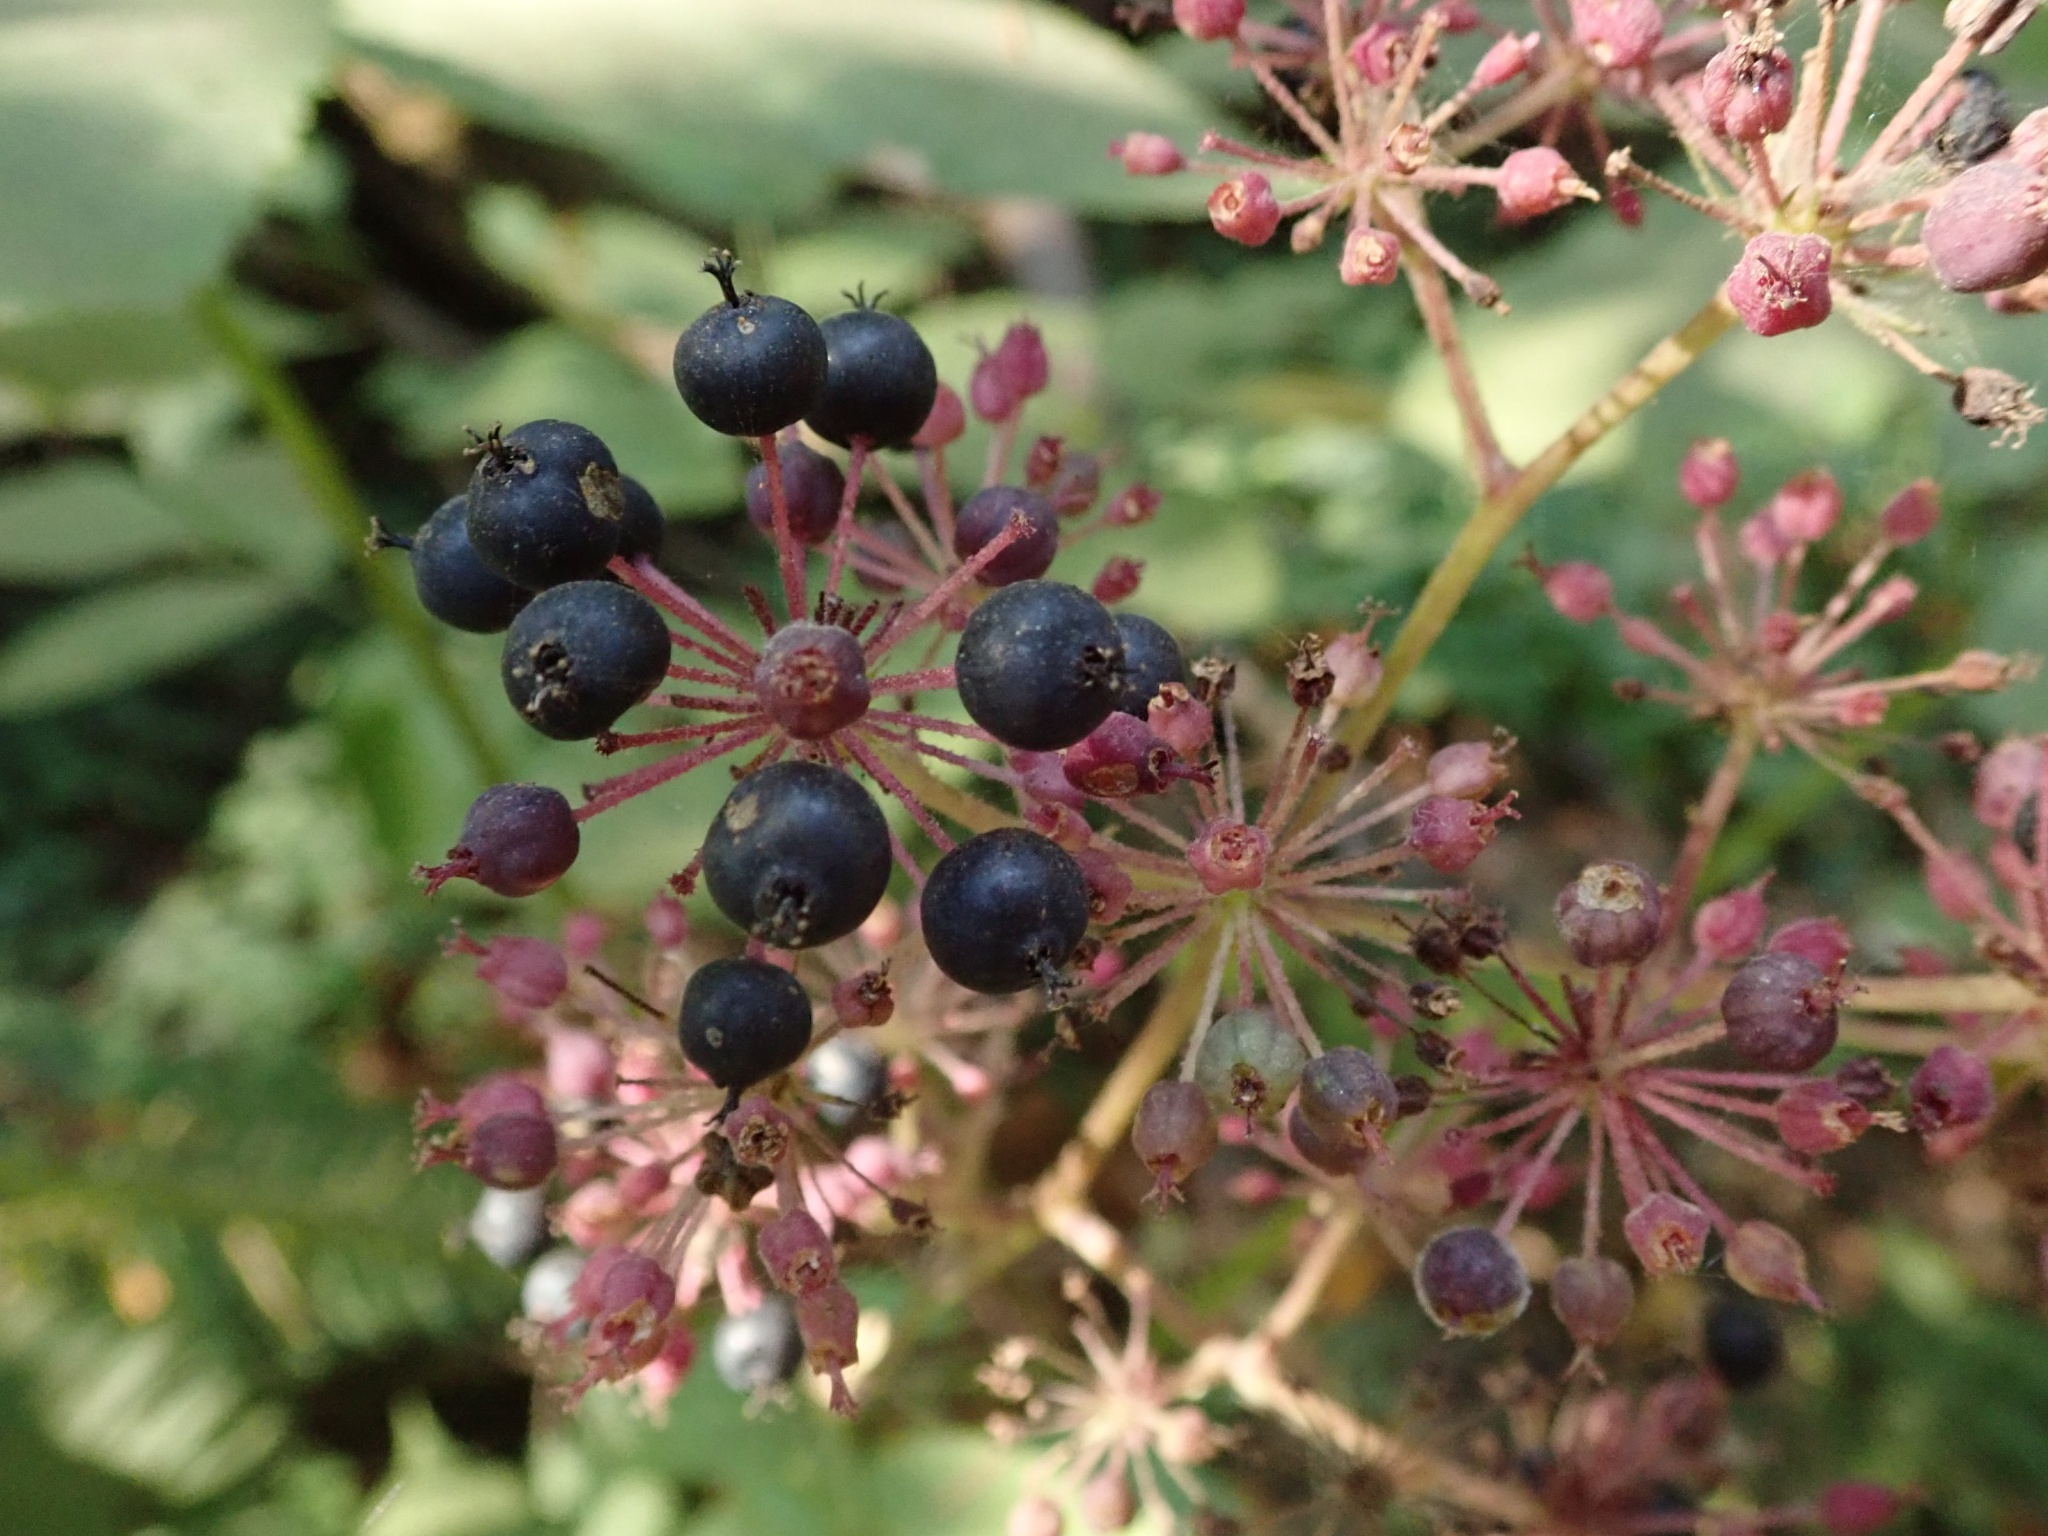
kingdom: Plantae
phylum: Tracheophyta
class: Magnoliopsida
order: Apiales
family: Araliaceae
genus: Aralia
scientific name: Aralia californica
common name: California-ginseng
